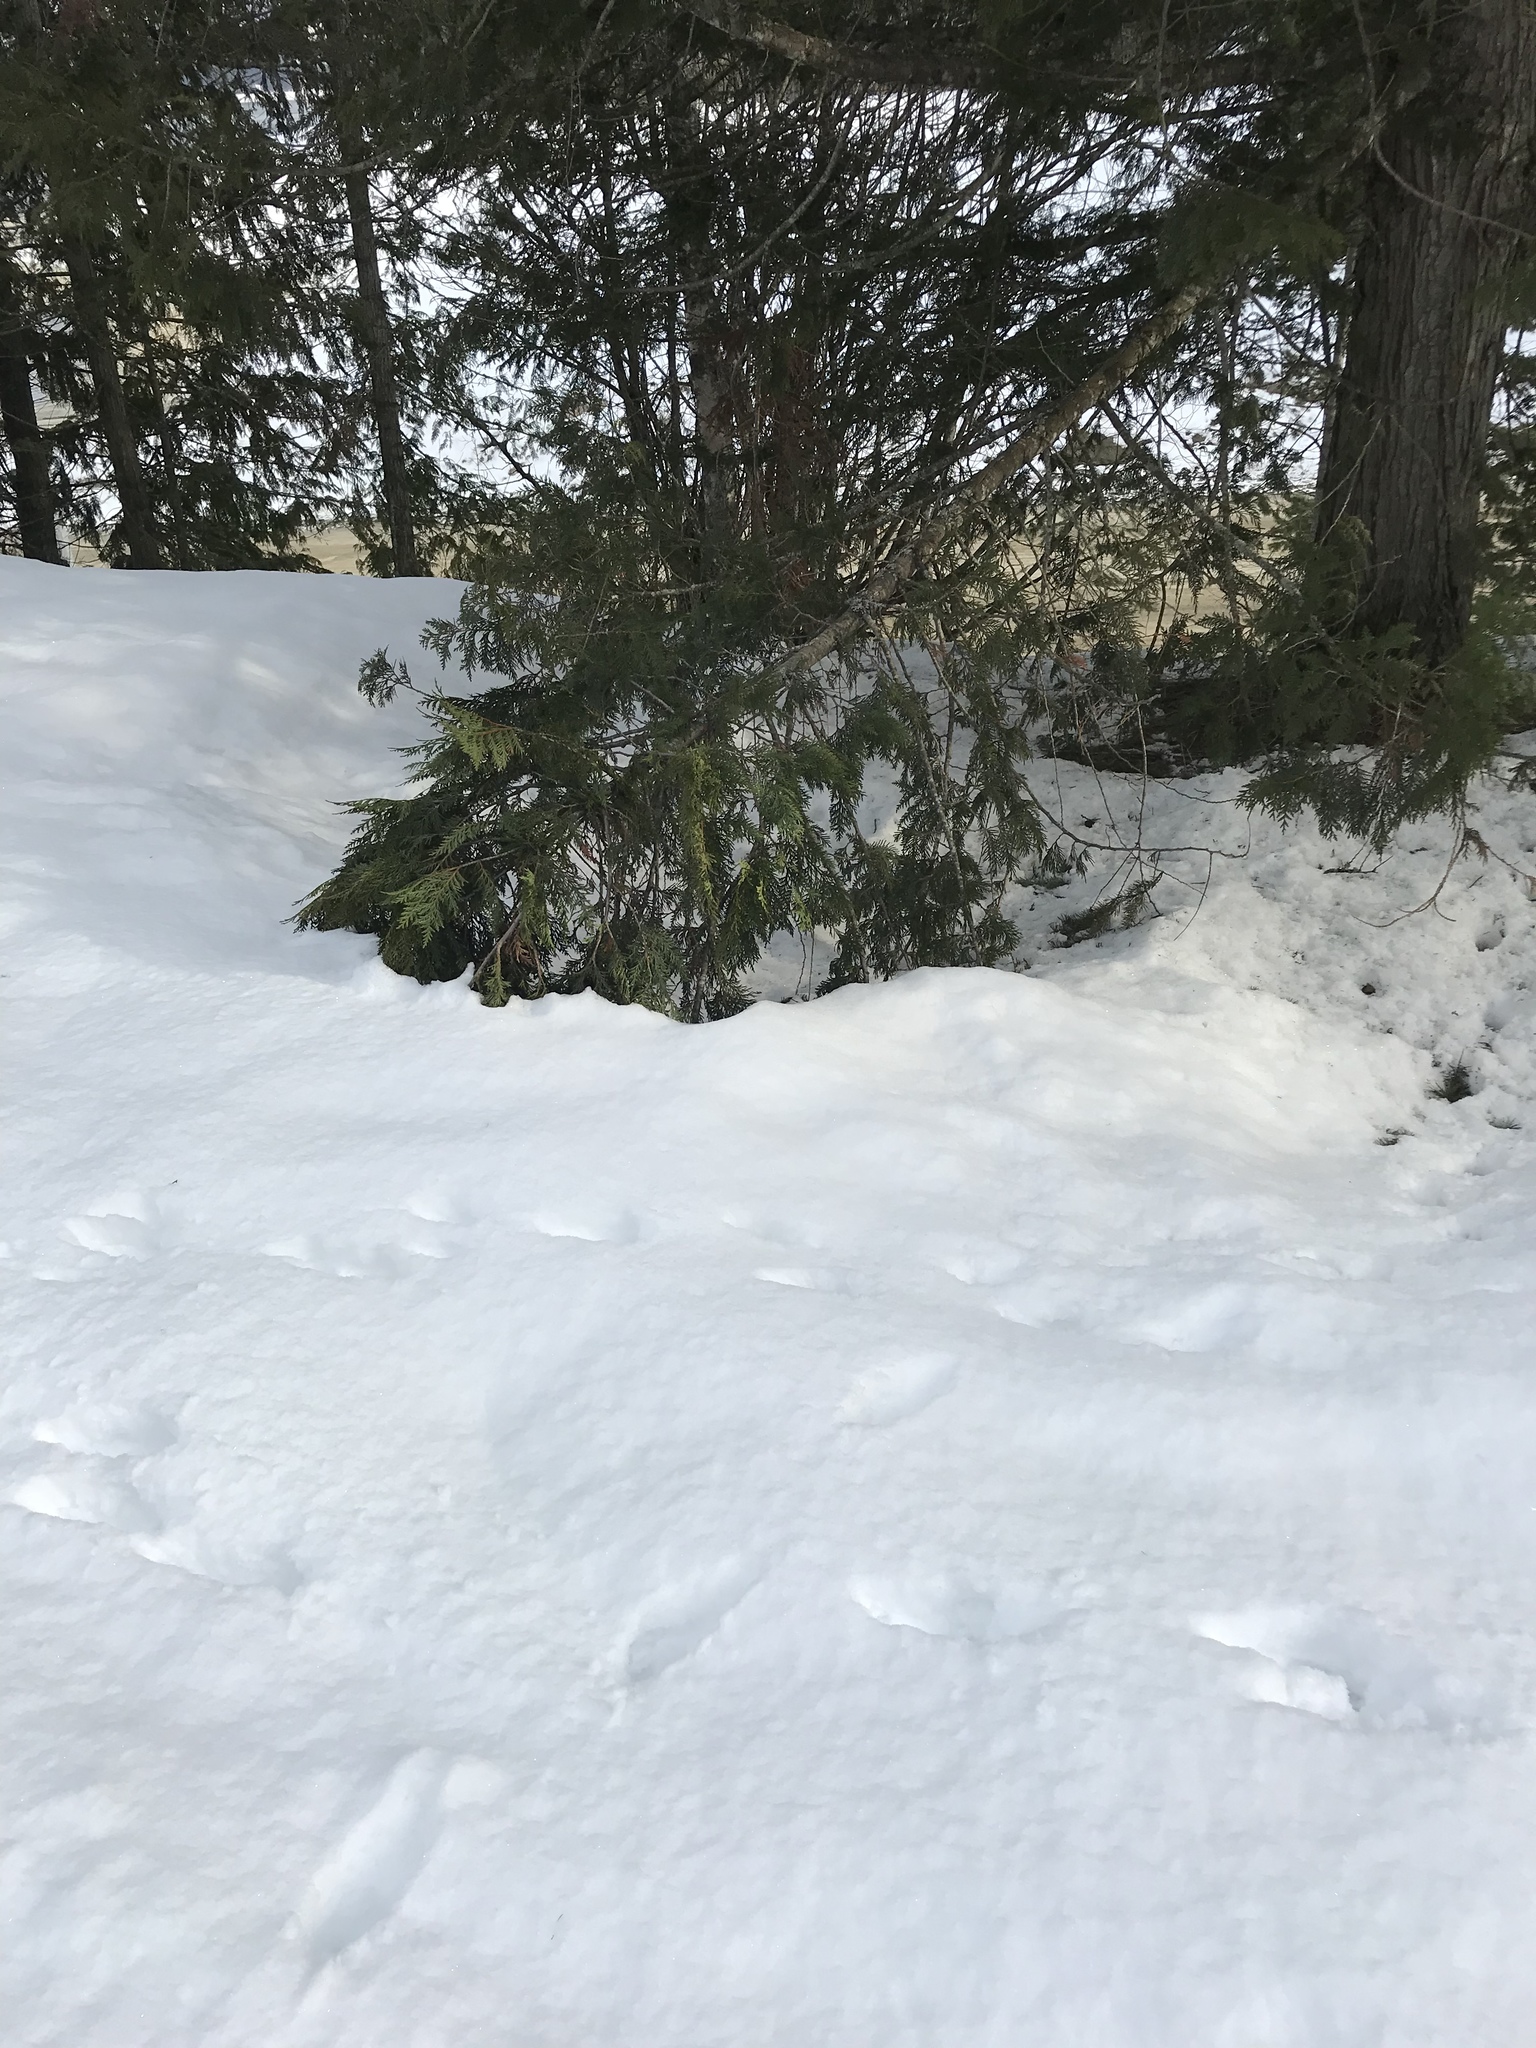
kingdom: Plantae
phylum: Tracheophyta
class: Pinopsida
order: Pinales
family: Cupressaceae
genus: Thuja
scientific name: Thuja plicata
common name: Western red-cedar
